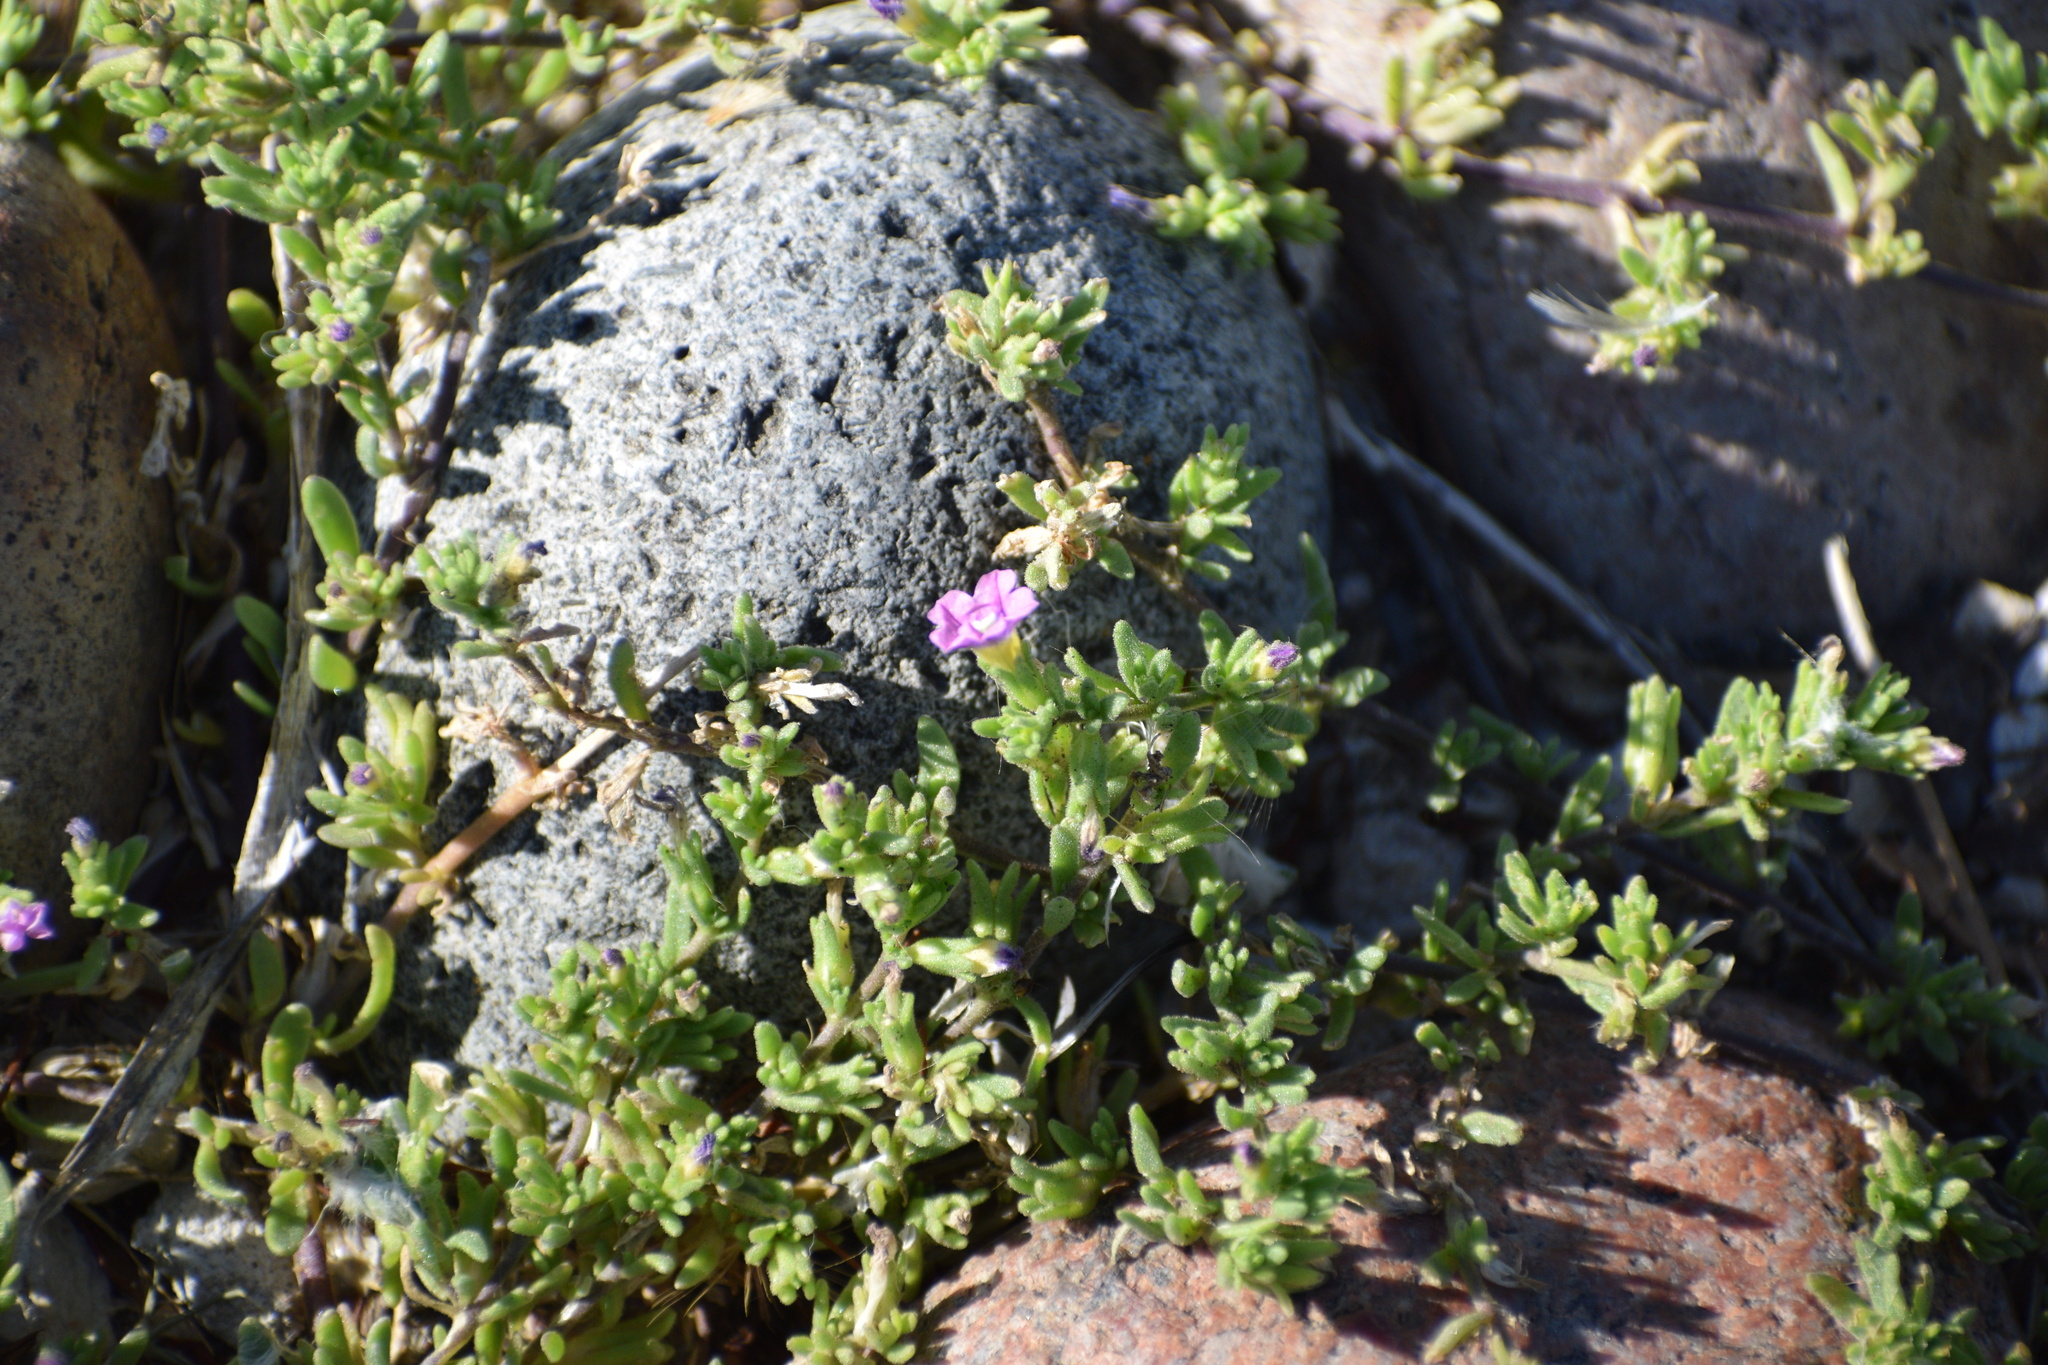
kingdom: Plantae
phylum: Tracheophyta
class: Magnoliopsida
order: Solanales
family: Solanaceae
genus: Calibrachoa
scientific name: Calibrachoa parviflora
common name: Seaside petunia
